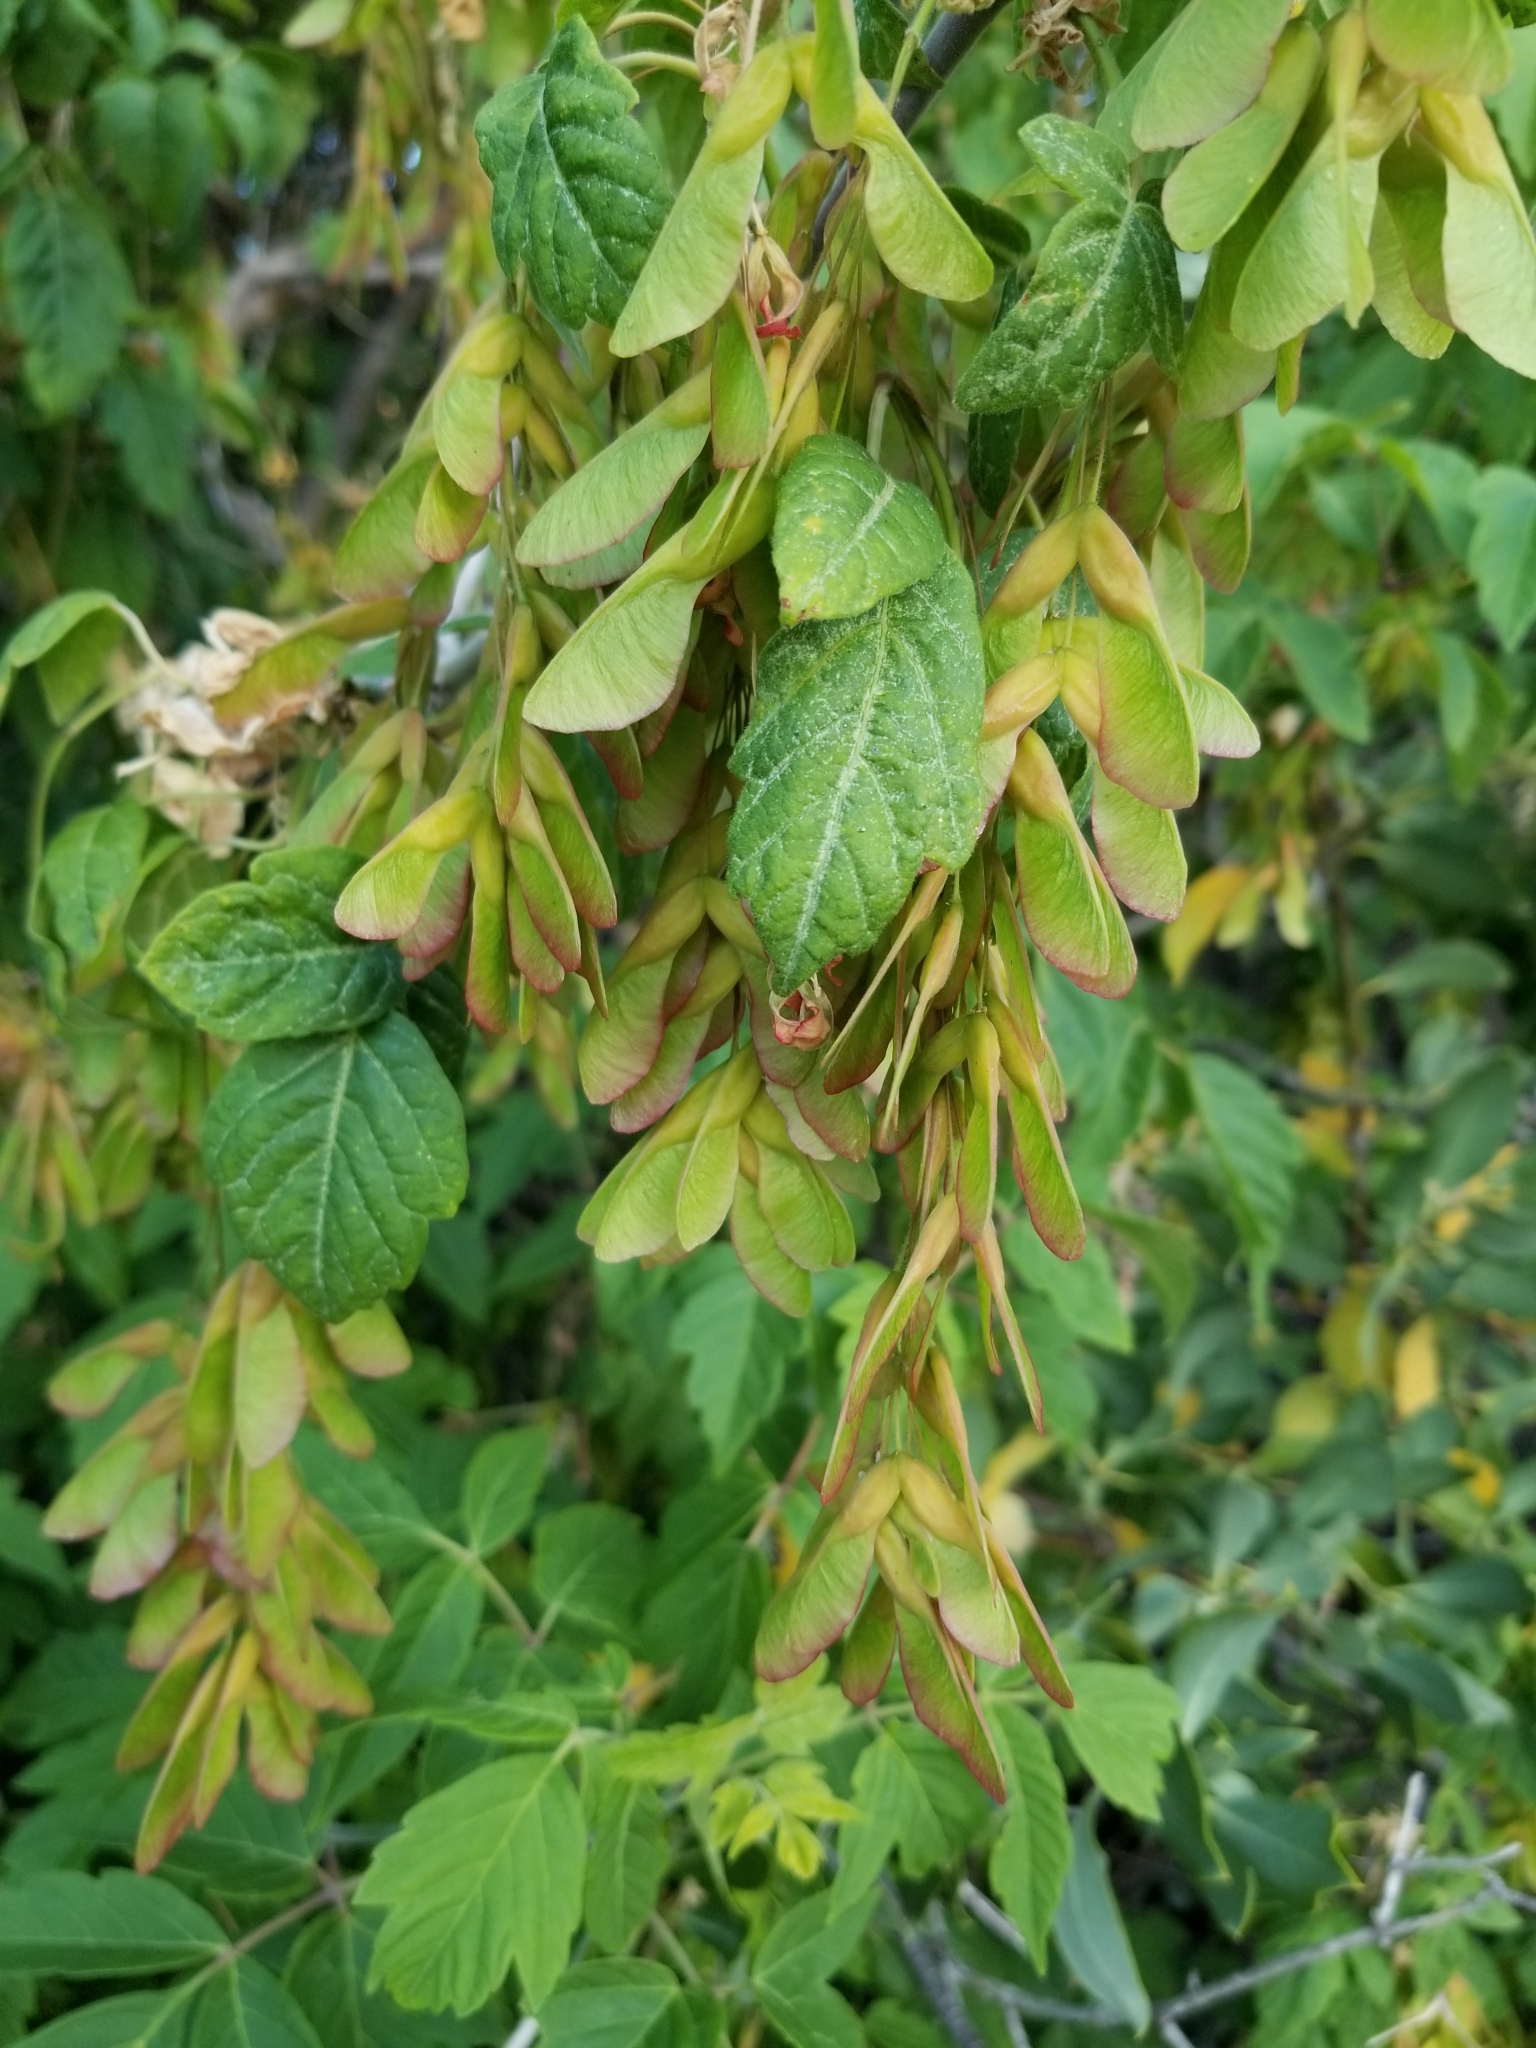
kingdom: Plantae
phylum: Tracheophyta
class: Magnoliopsida
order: Sapindales
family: Sapindaceae
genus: Acer
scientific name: Acer negundo
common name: Ashleaf maple
